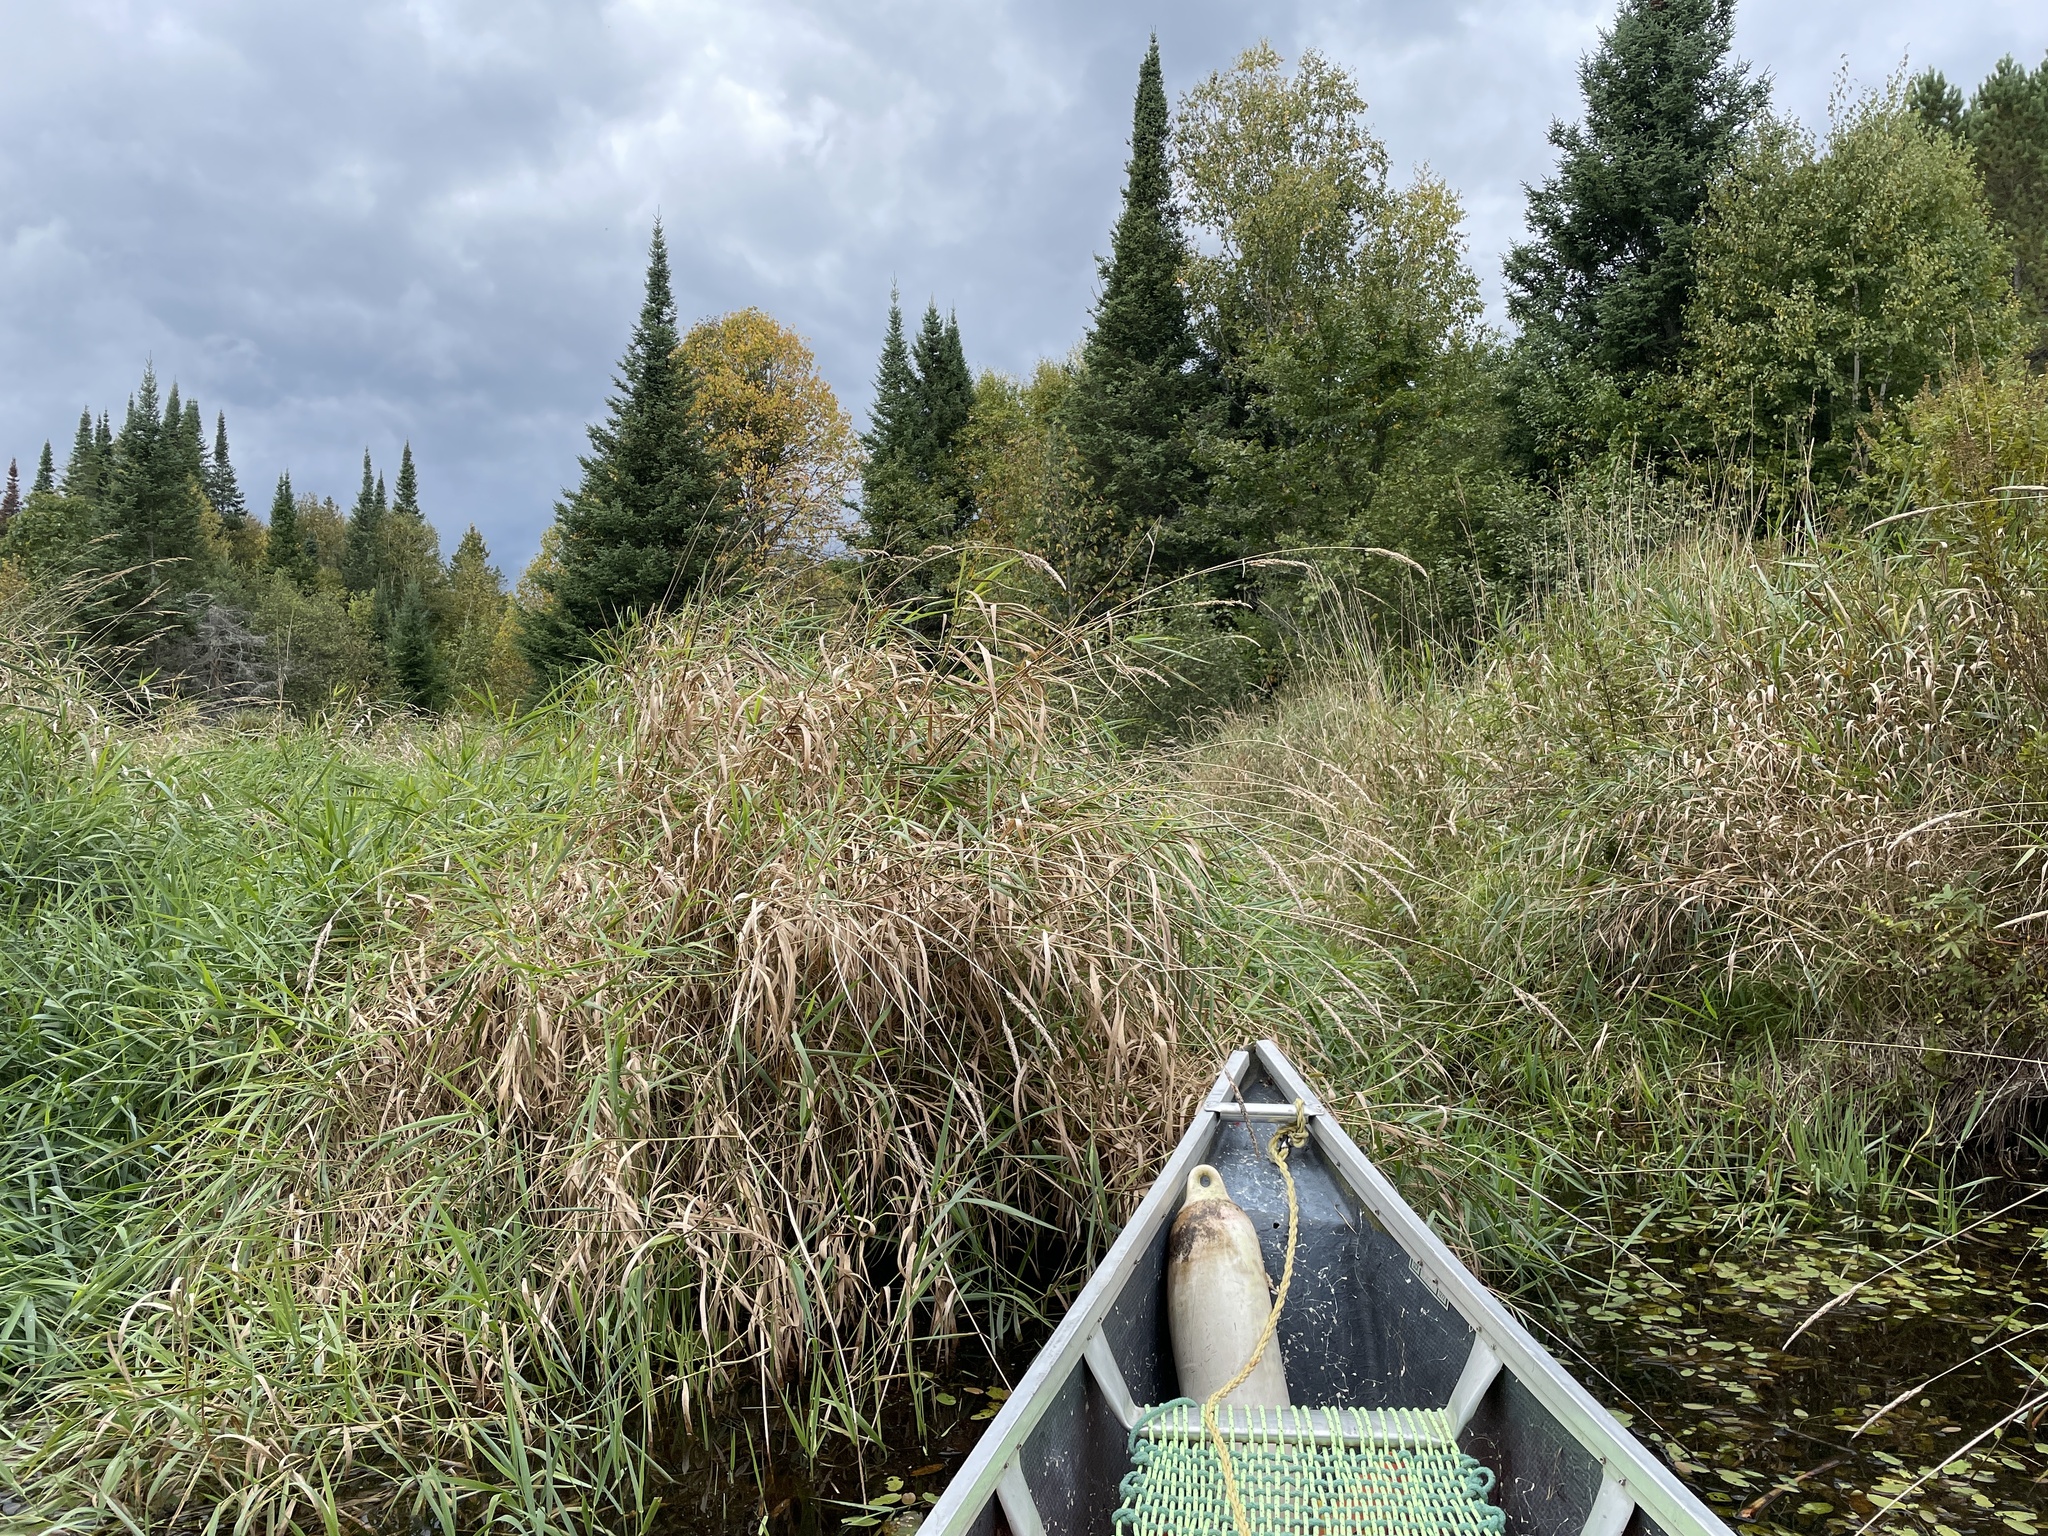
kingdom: Plantae
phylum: Tracheophyta
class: Liliopsida
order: Poales
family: Poaceae
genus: Phalaris
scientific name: Phalaris arundinacea
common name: Reed canary-grass
